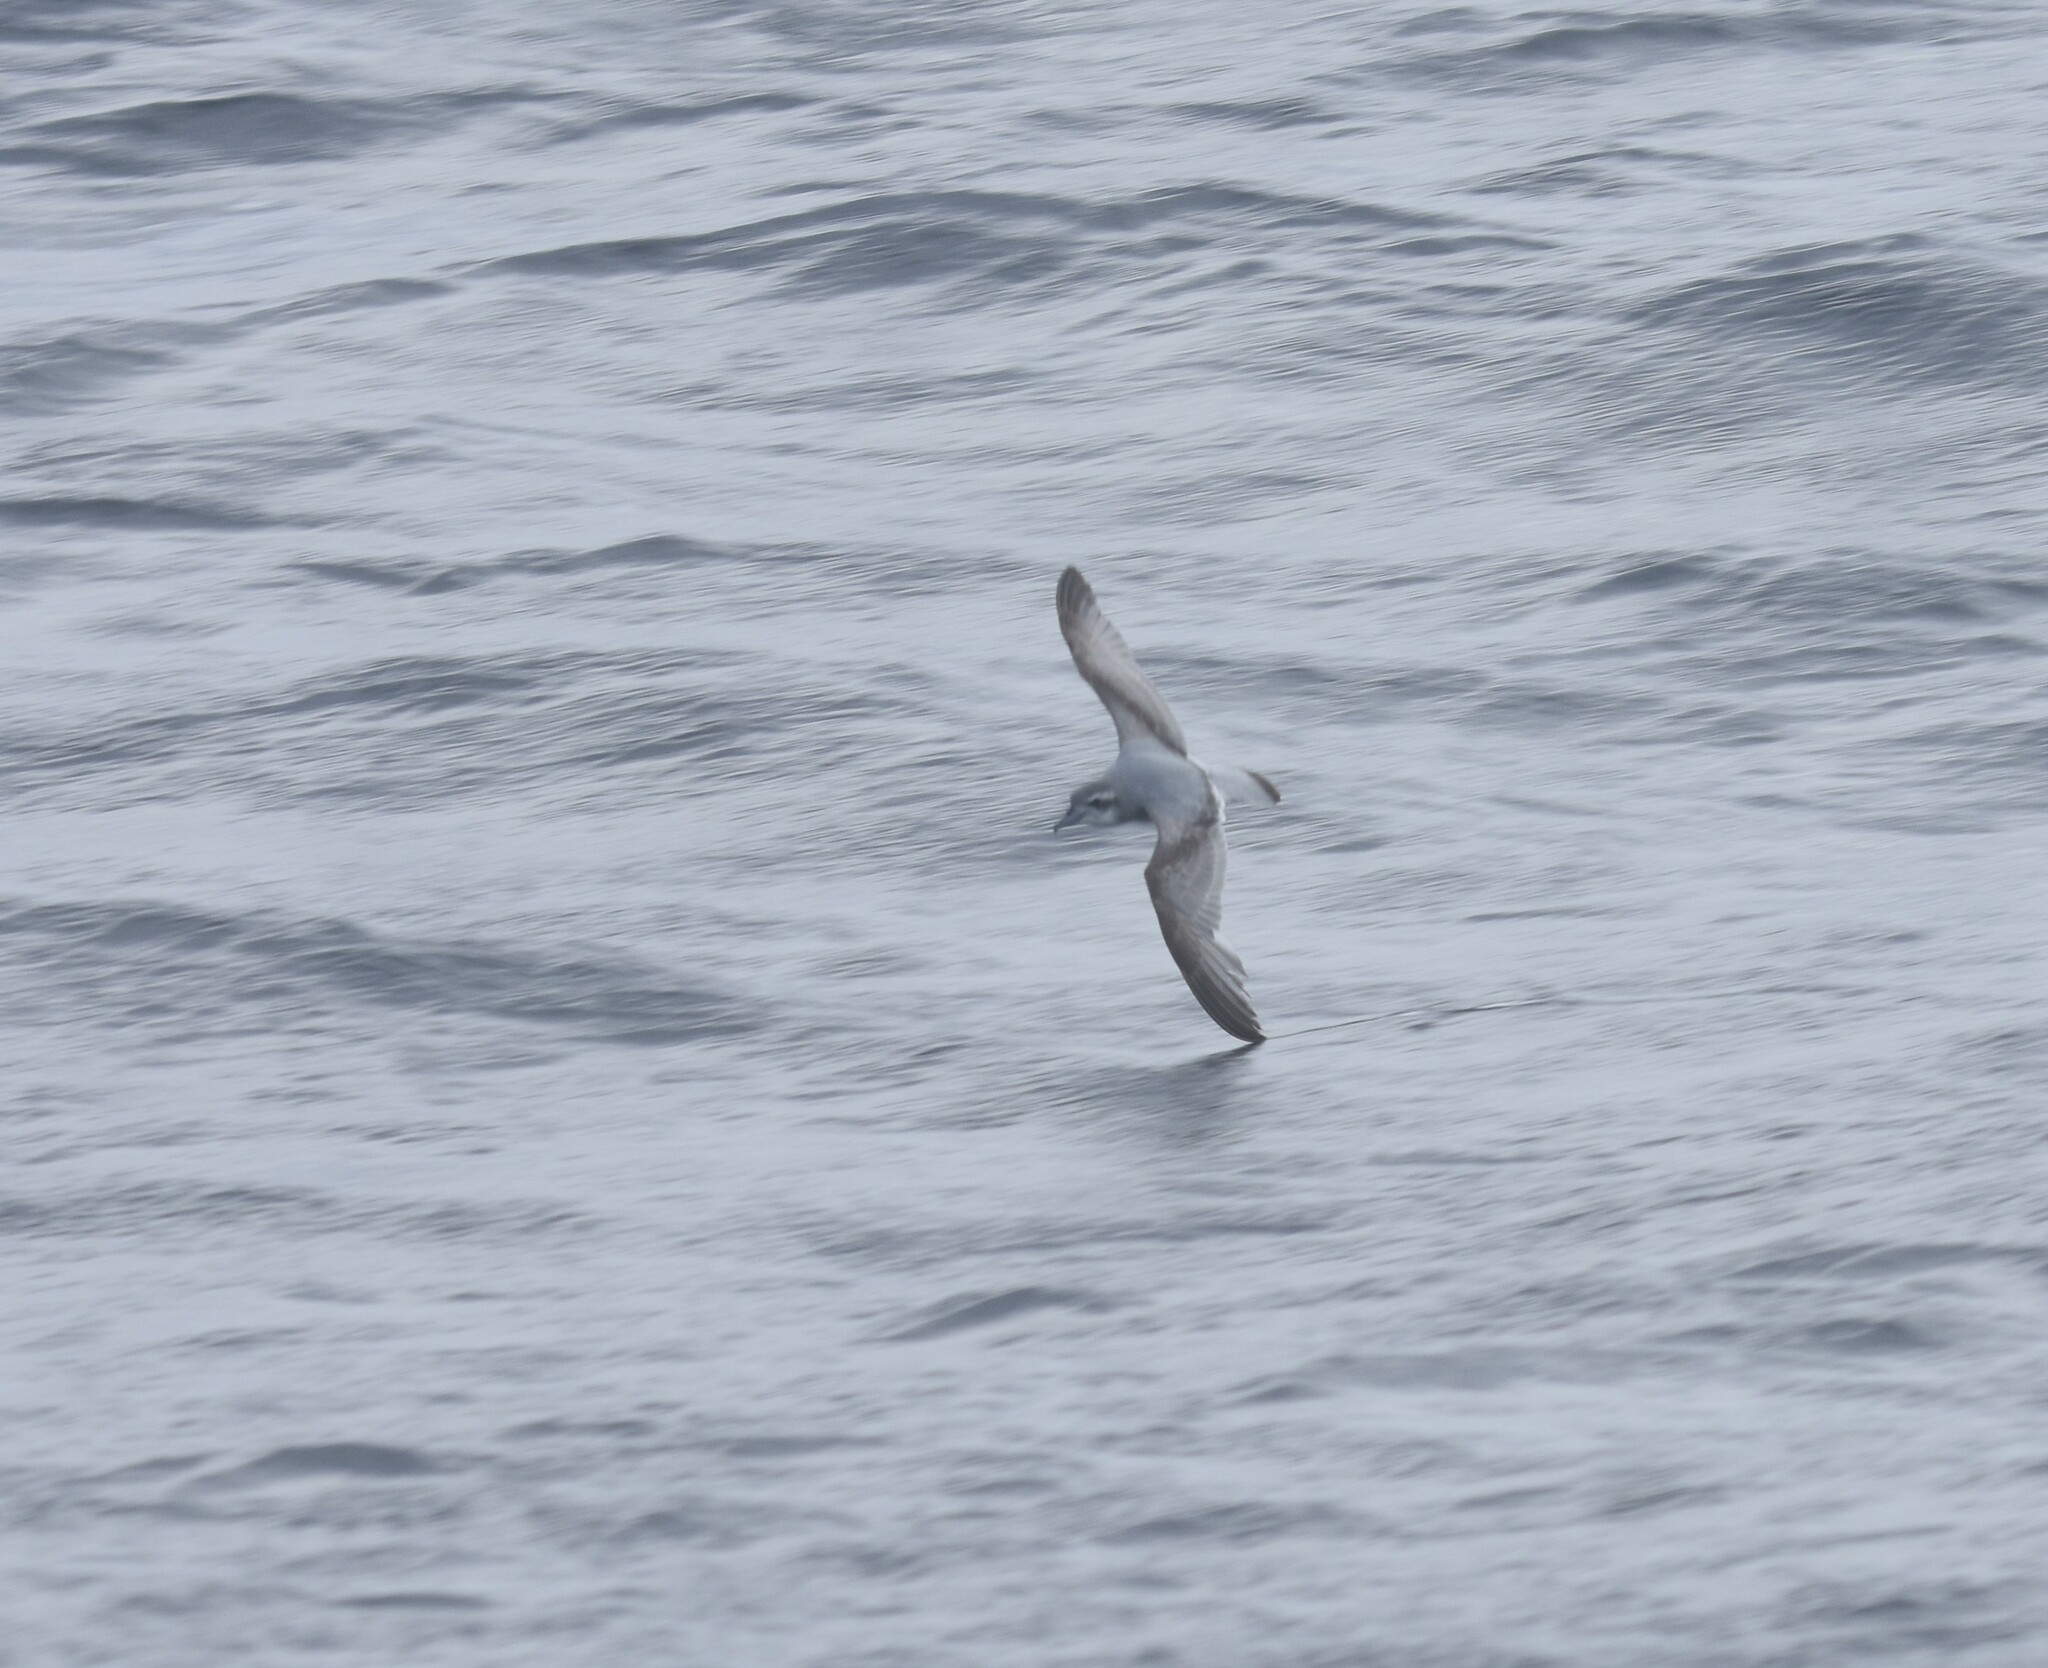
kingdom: Animalia
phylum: Chordata
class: Aves
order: Procellariiformes
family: Procellariidae
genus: Pachyptila
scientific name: Pachyptila desolata
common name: Antarctic prion
